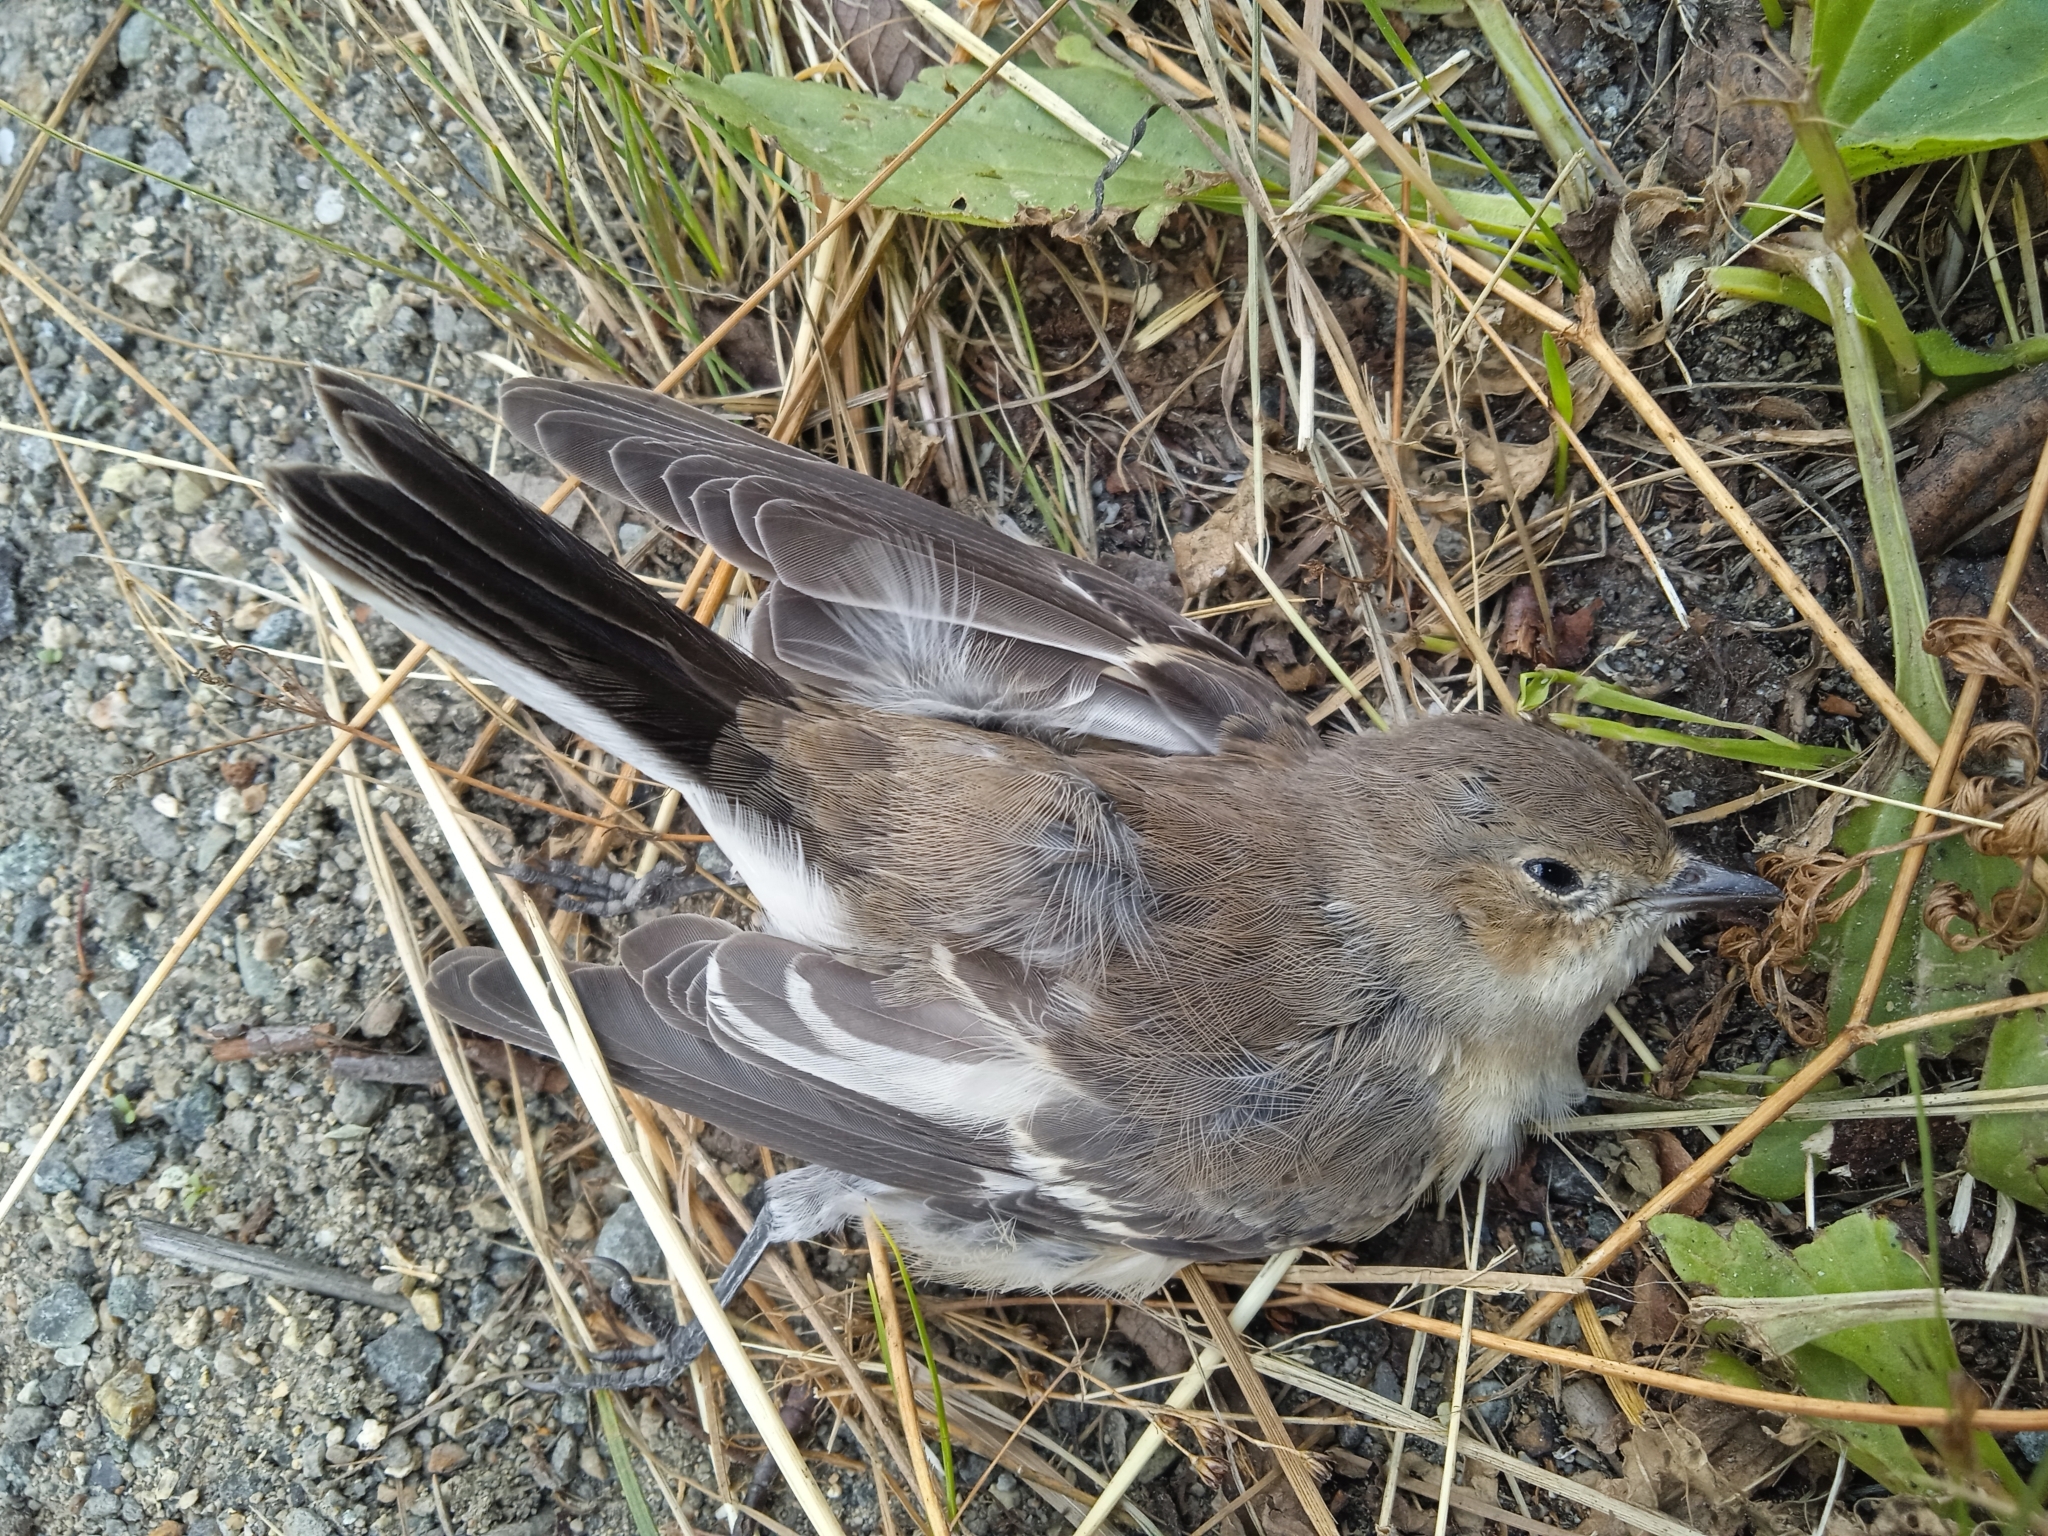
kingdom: Animalia
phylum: Chordata
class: Aves
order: Passeriformes
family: Muscicapidae
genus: Ficedula
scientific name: Ficedula hypoleuca
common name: European pied flycatcher
